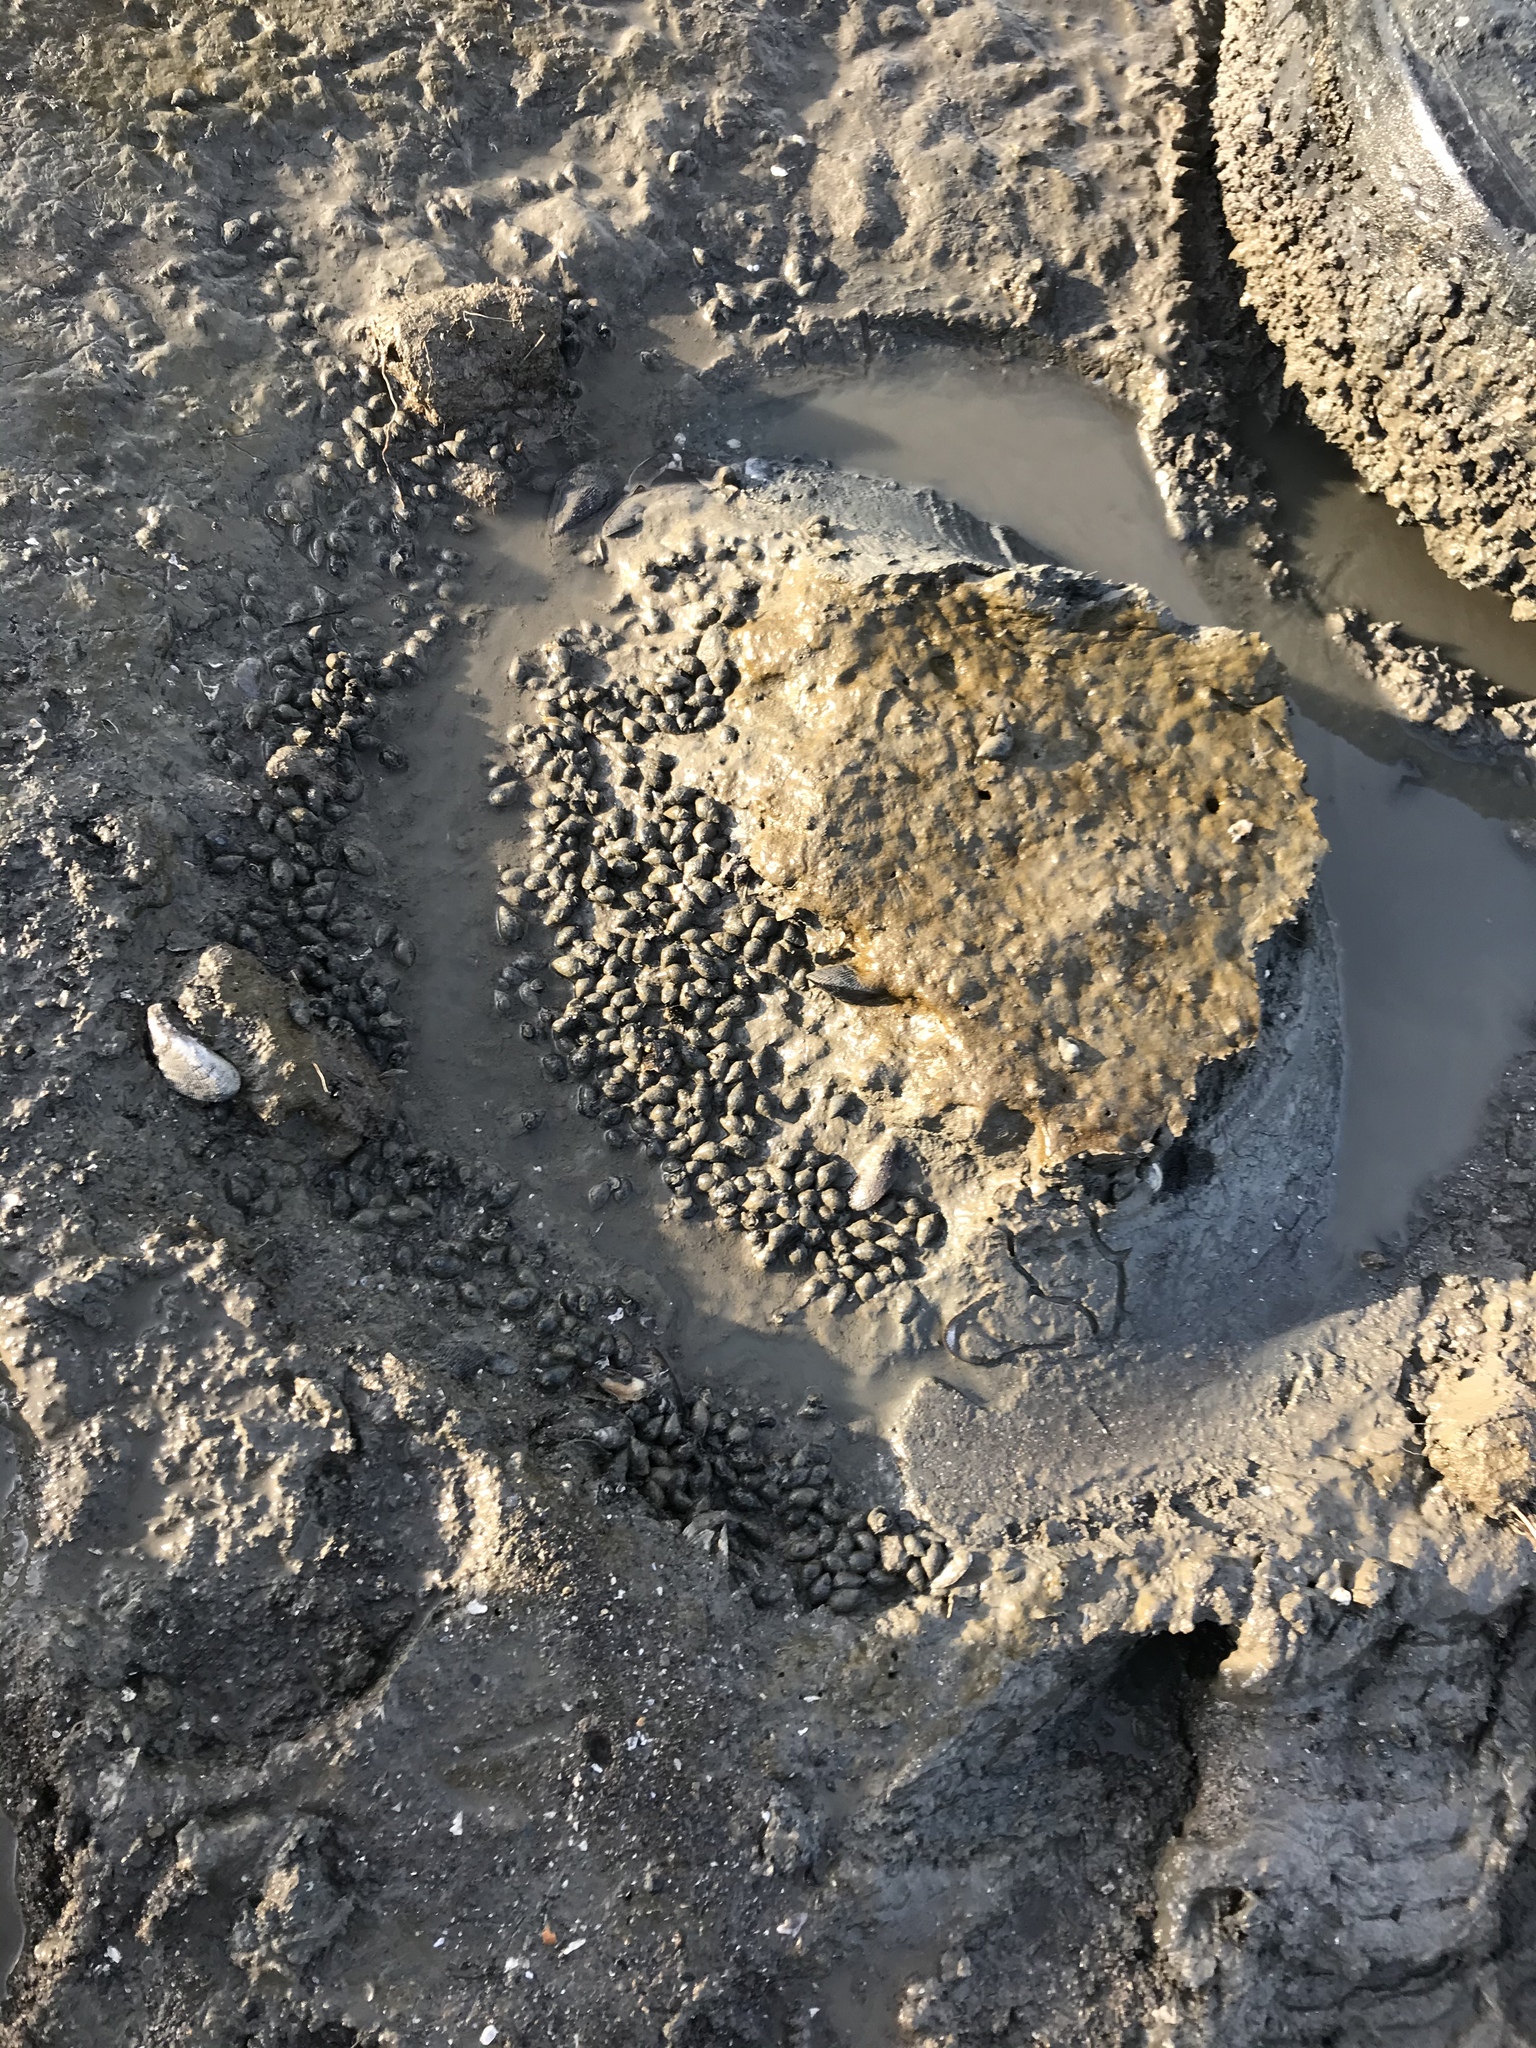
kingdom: Animalia
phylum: Mollusca
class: Gastropoda
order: Neogastropoda
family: Nassariidae
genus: Ilyanassa
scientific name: Ilyanassa obsoleta
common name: Eastern mudsnail
